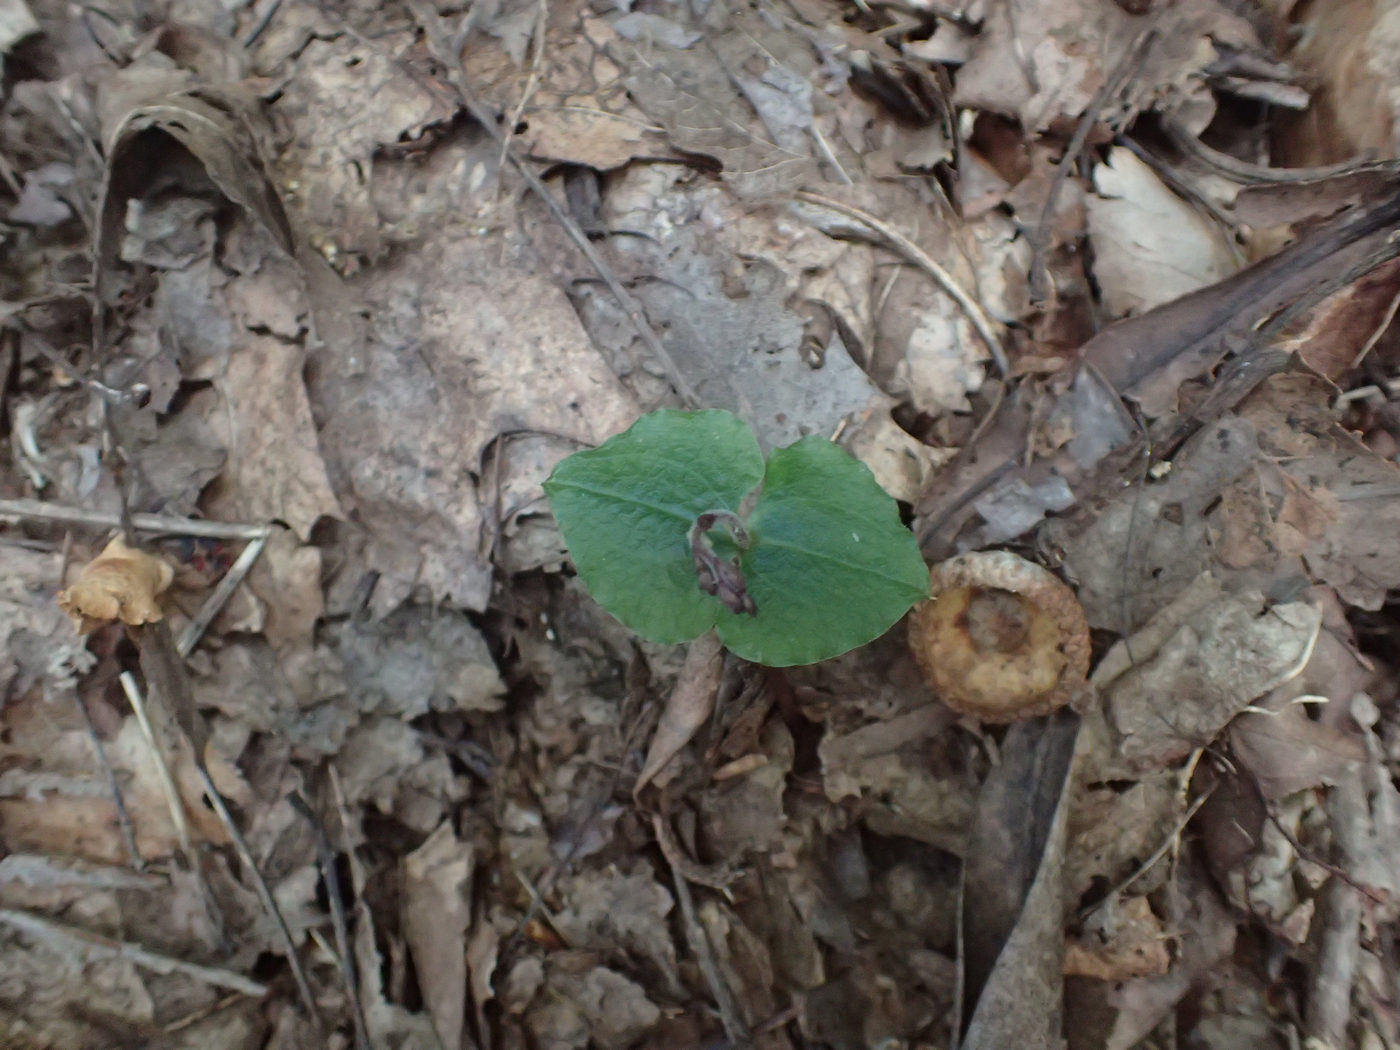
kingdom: Plantae
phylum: Tracheophyta
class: Liliopsida
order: Asparagales
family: Orchidaceae
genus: Neottia
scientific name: Neottia smallii
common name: Kidneyleaf twayblade
